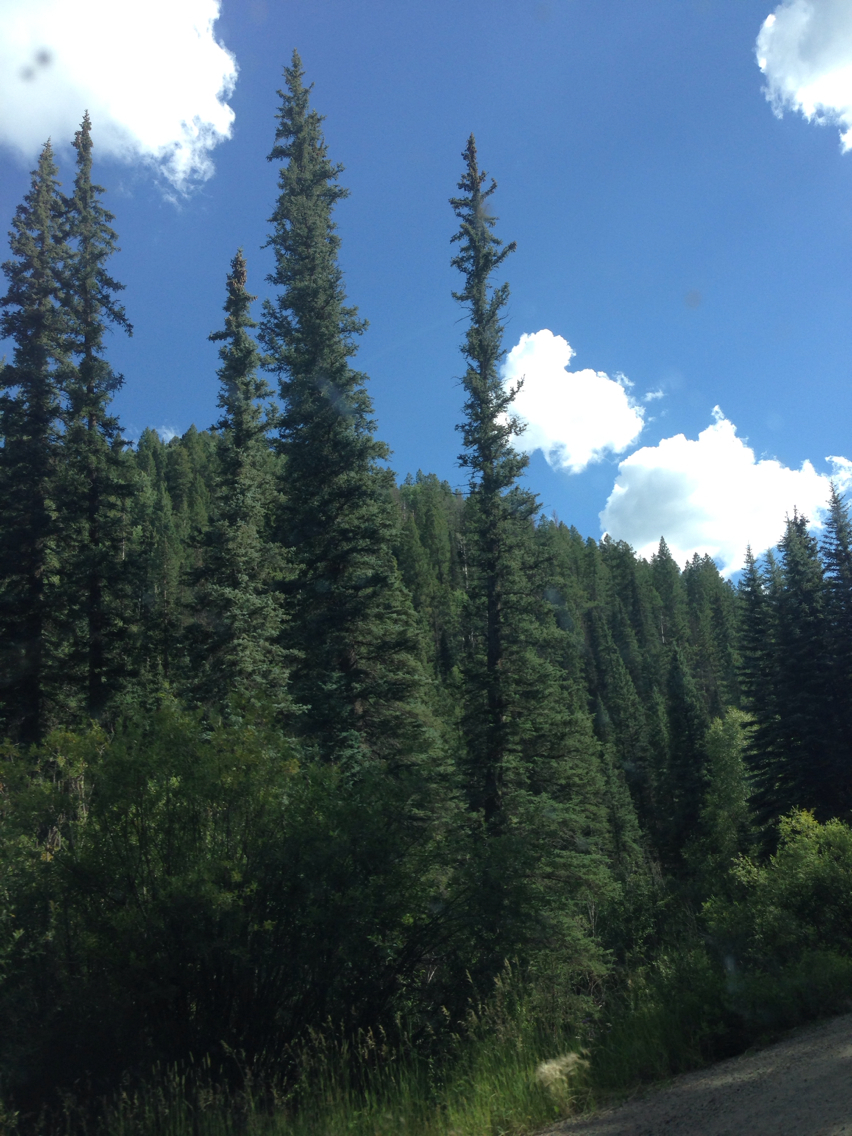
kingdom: Plantae
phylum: Tracheophyta
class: Pinopsida
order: Pinales
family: Pinaceae
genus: Abies
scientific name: Abies lasiocarpa
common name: Subalpine fir
